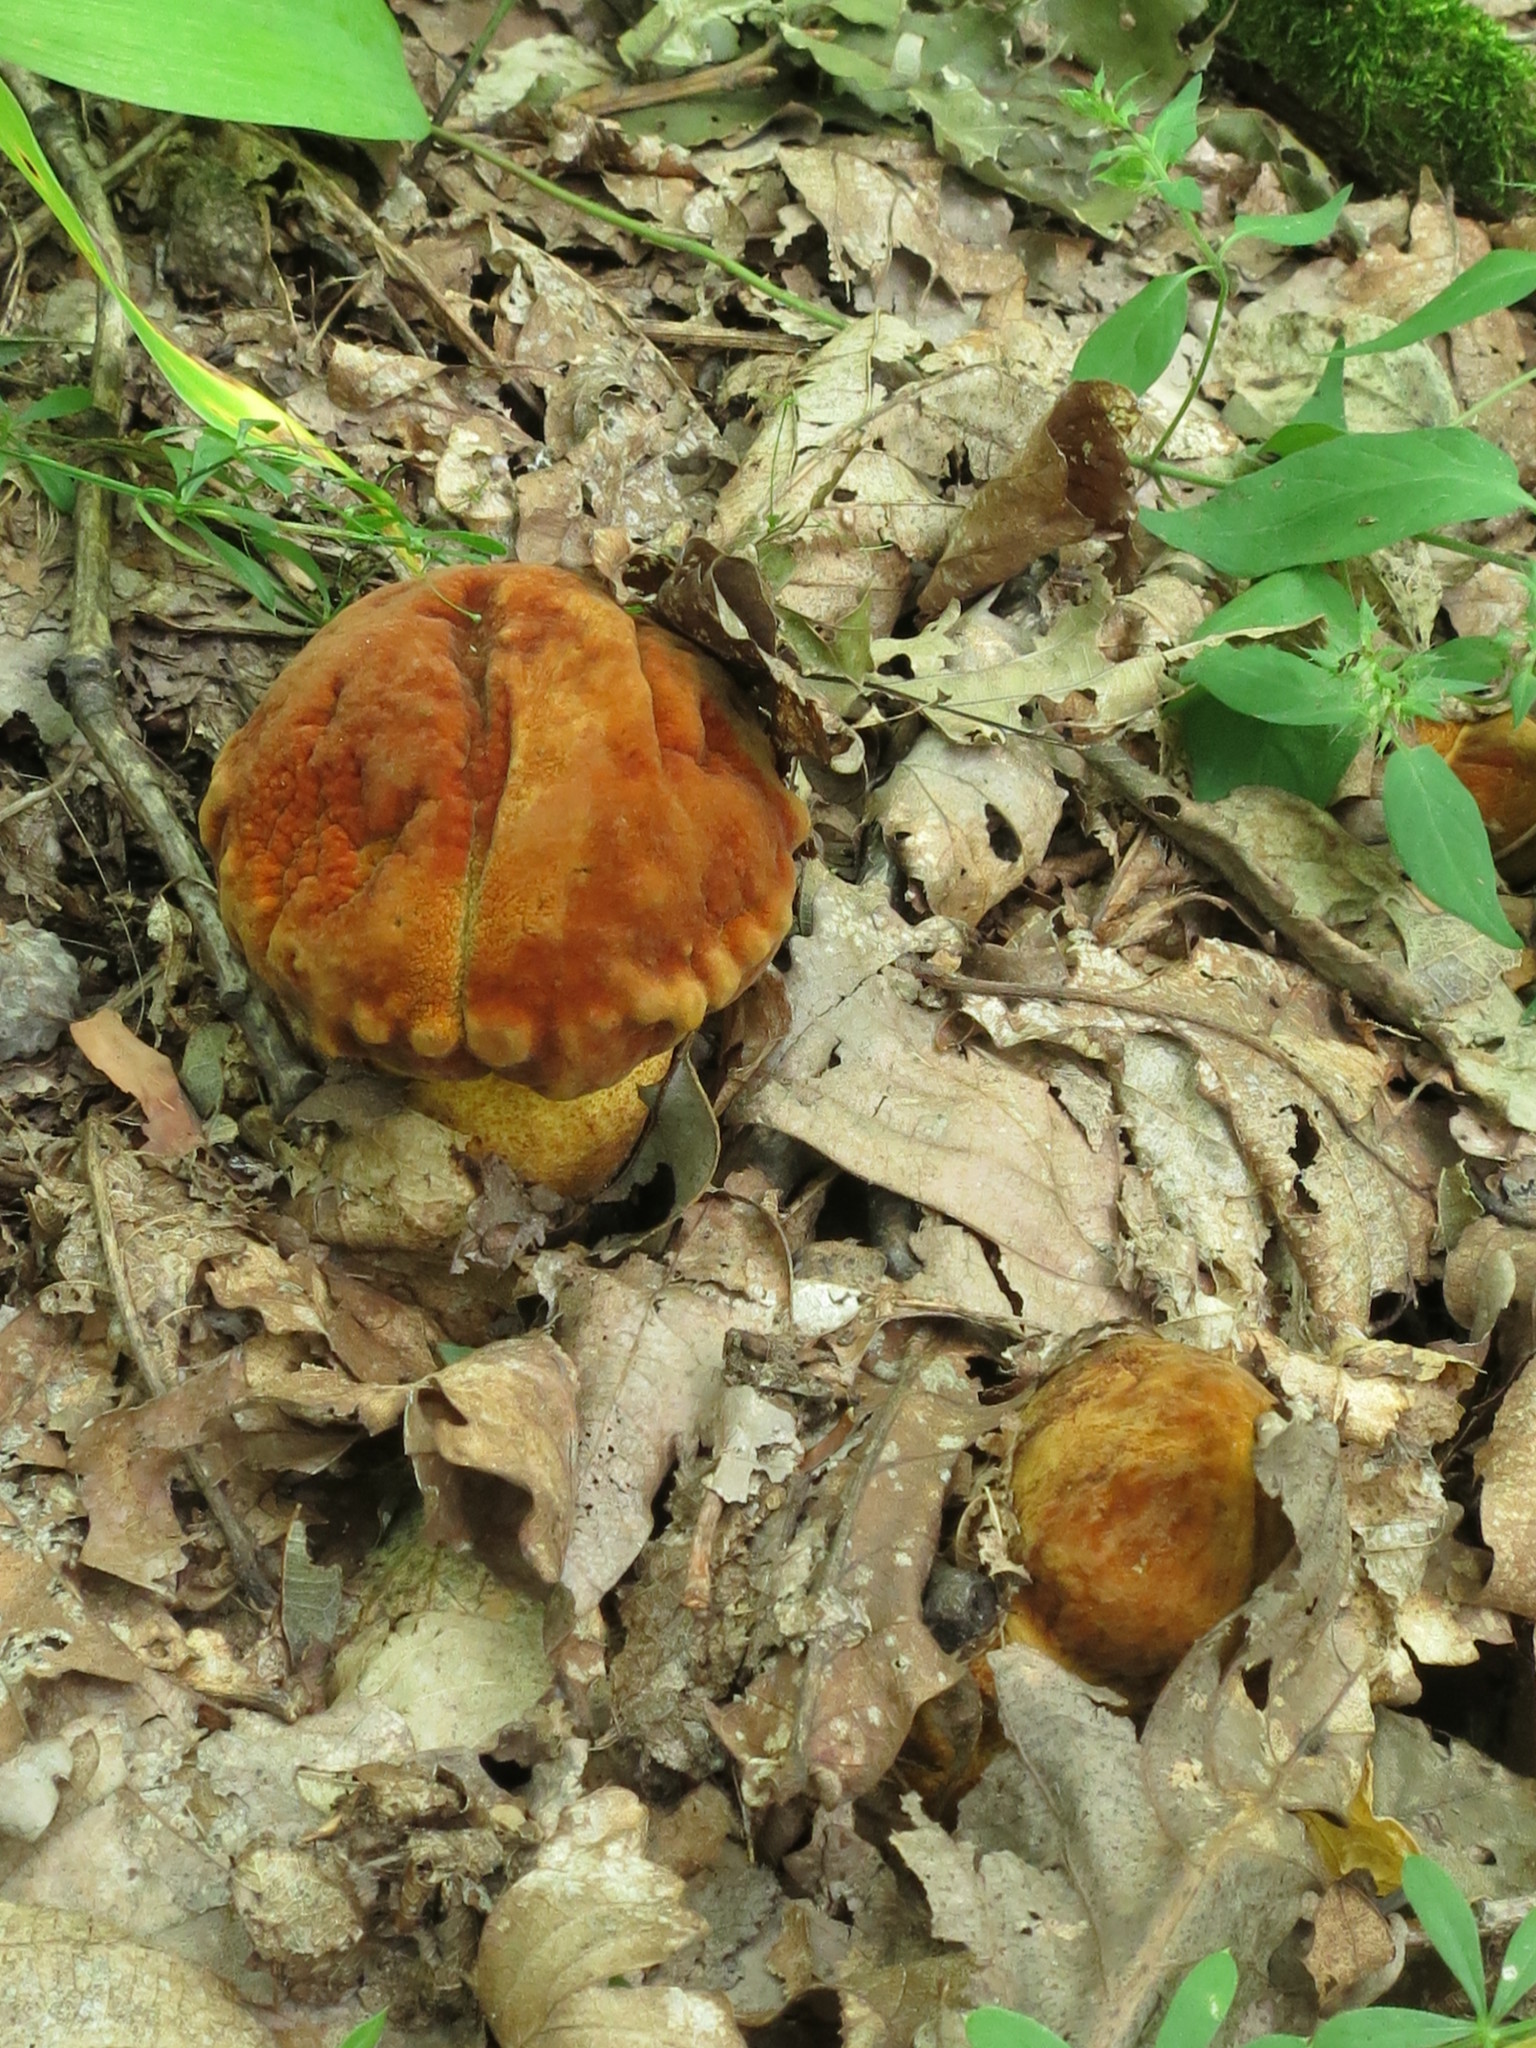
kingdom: Fungi
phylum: Basidiomycota
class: Agaricomycetes
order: Boletales
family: Boletaceae
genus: Rugiboletus
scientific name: Rugiboletus extremiorientalis
